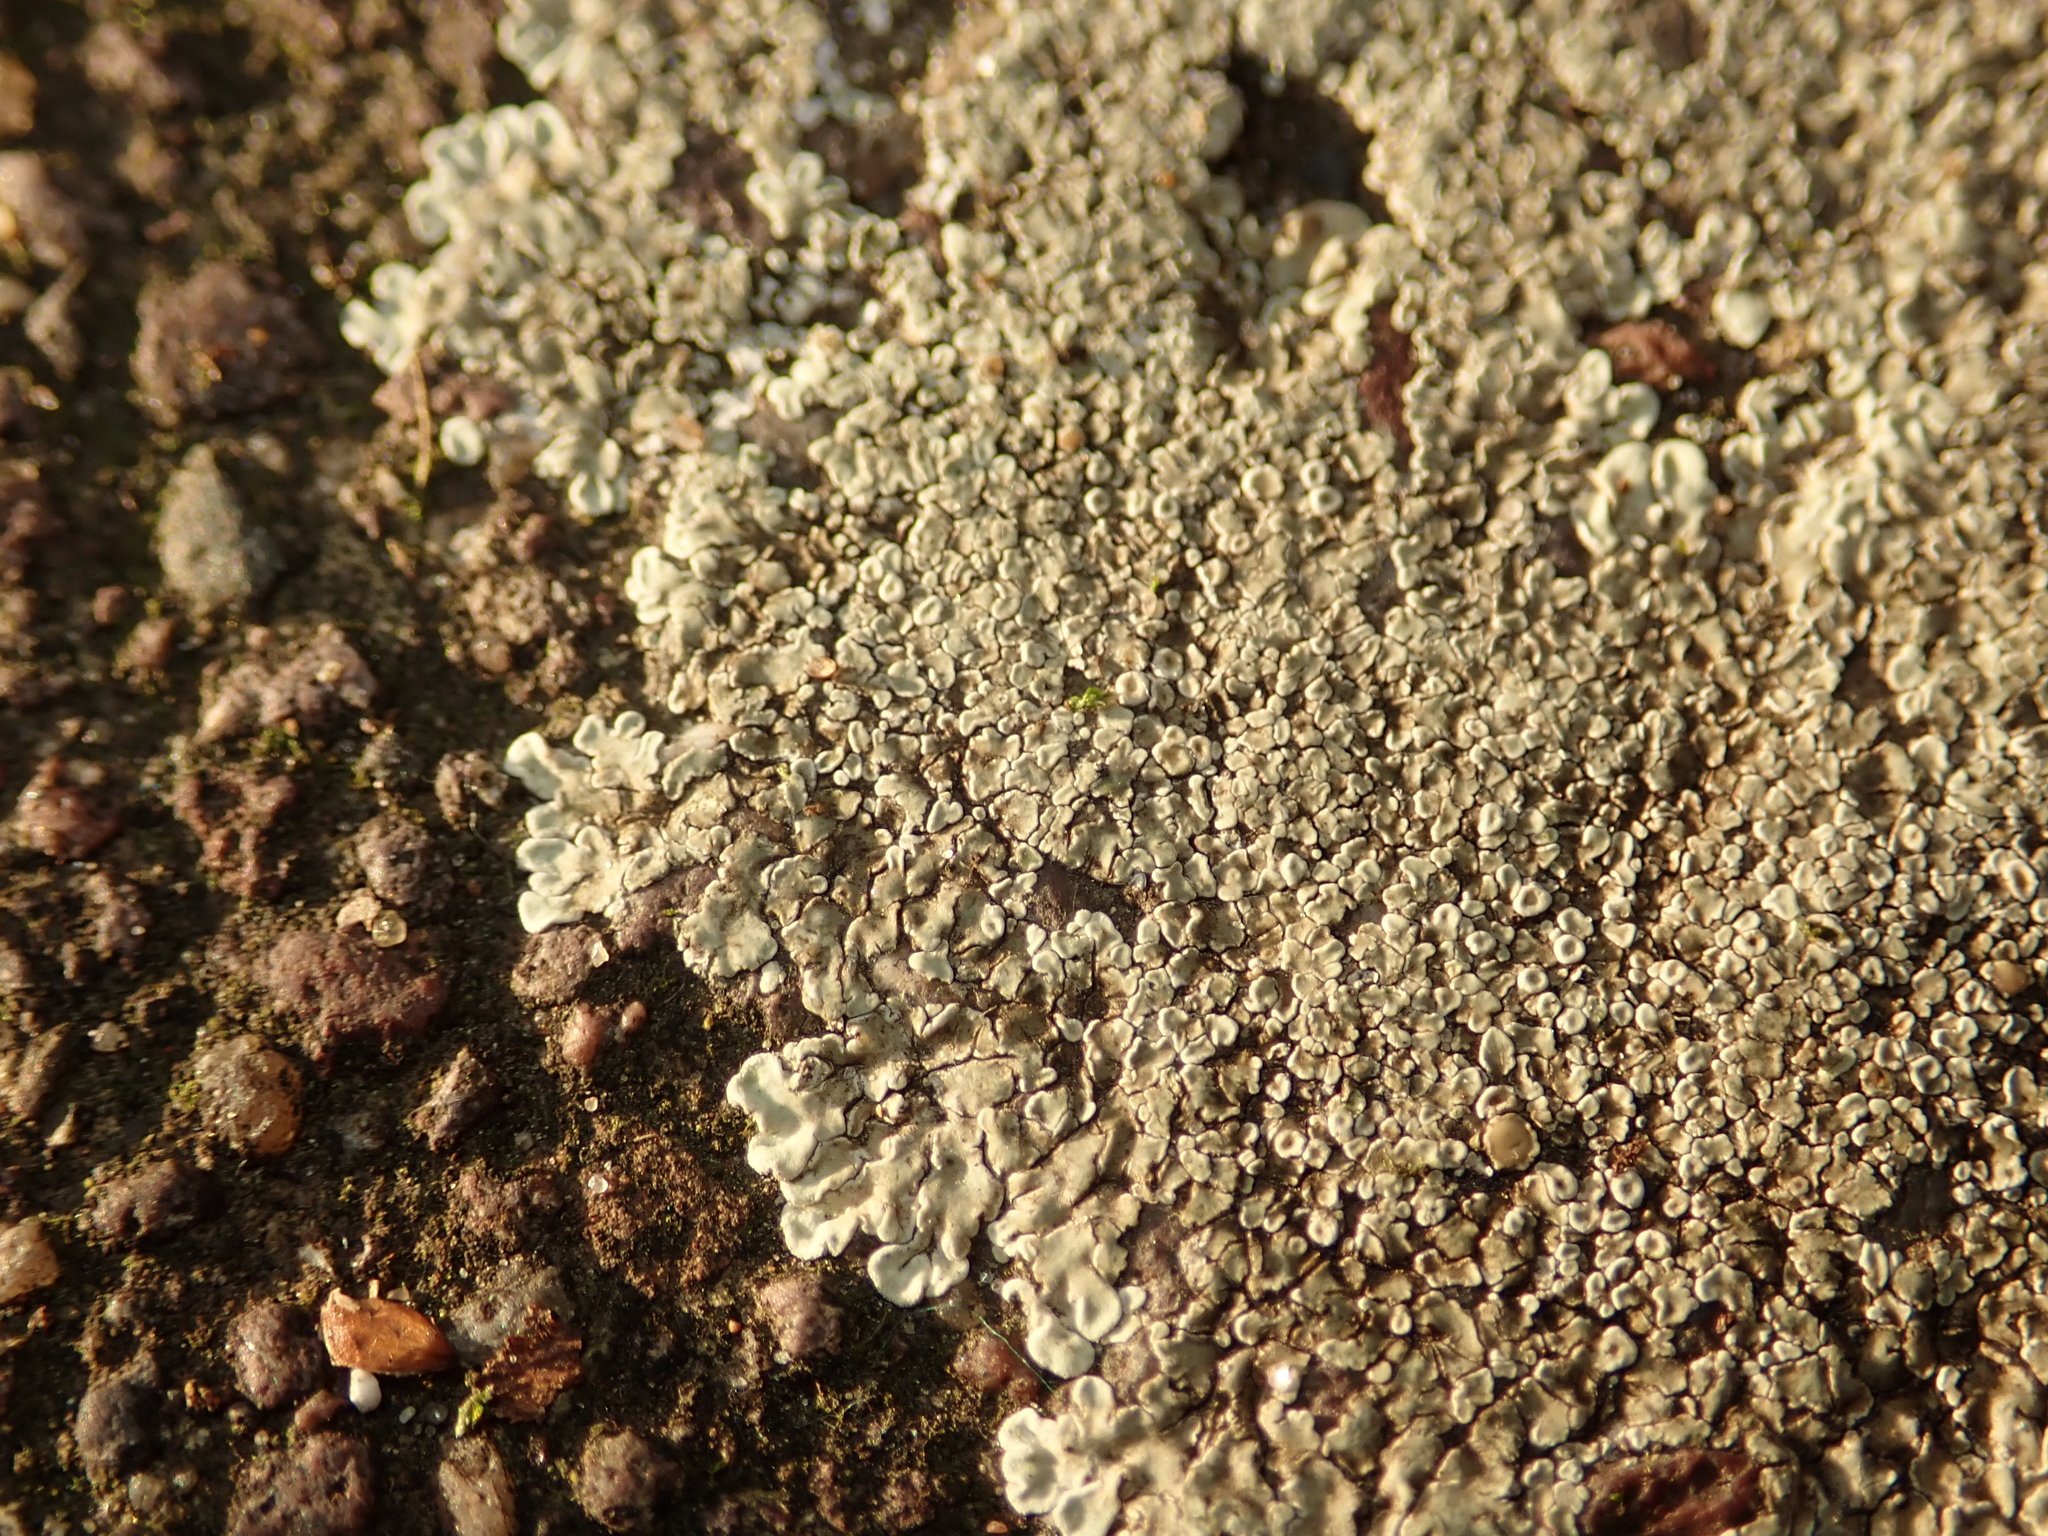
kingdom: Fungi
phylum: Ascomycota
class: Lecanoromycetes
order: Lecanorales
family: Lecanoraceae
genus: Protoparmeliopsis
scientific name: Protoparmeliopsis muralis
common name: Stonewall rim lichen
